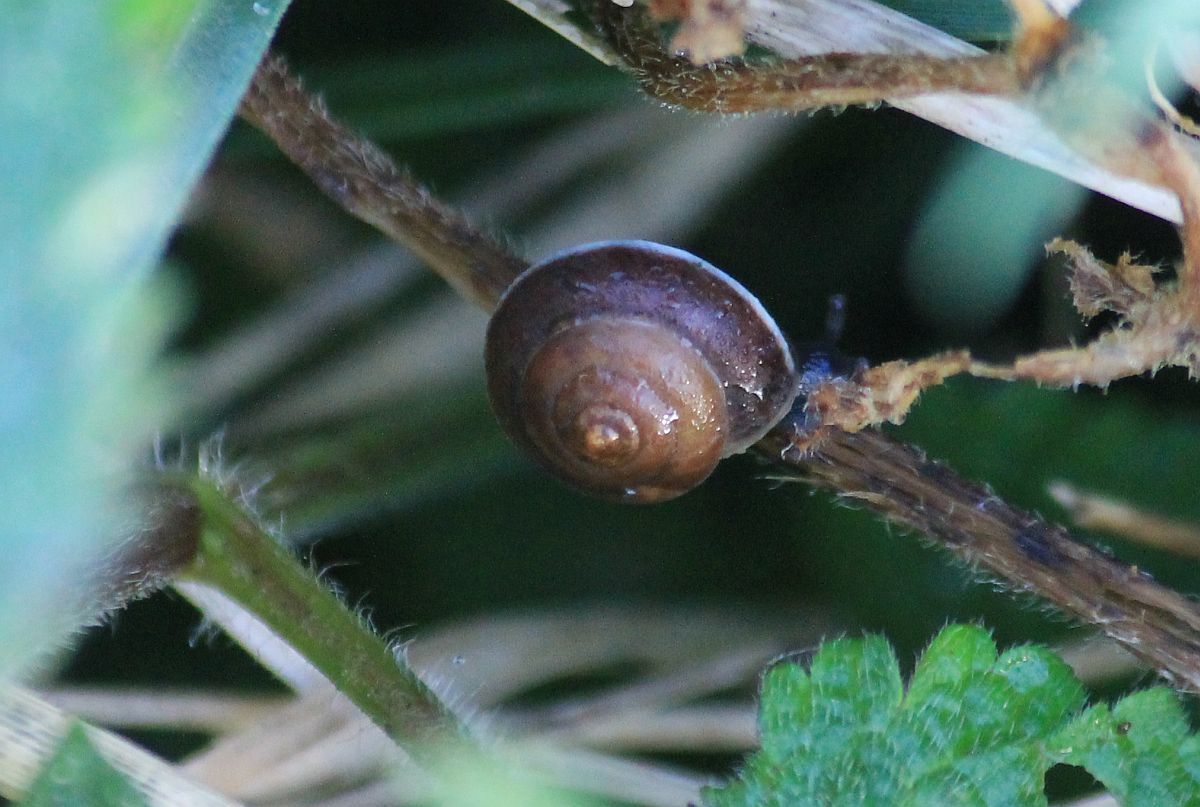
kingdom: Animalia
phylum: Mollusca
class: Gastropoda
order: Stylommatophora
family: Hygromiidae
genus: Hygromia
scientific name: Hygromia cinctella
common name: Girdled snail
